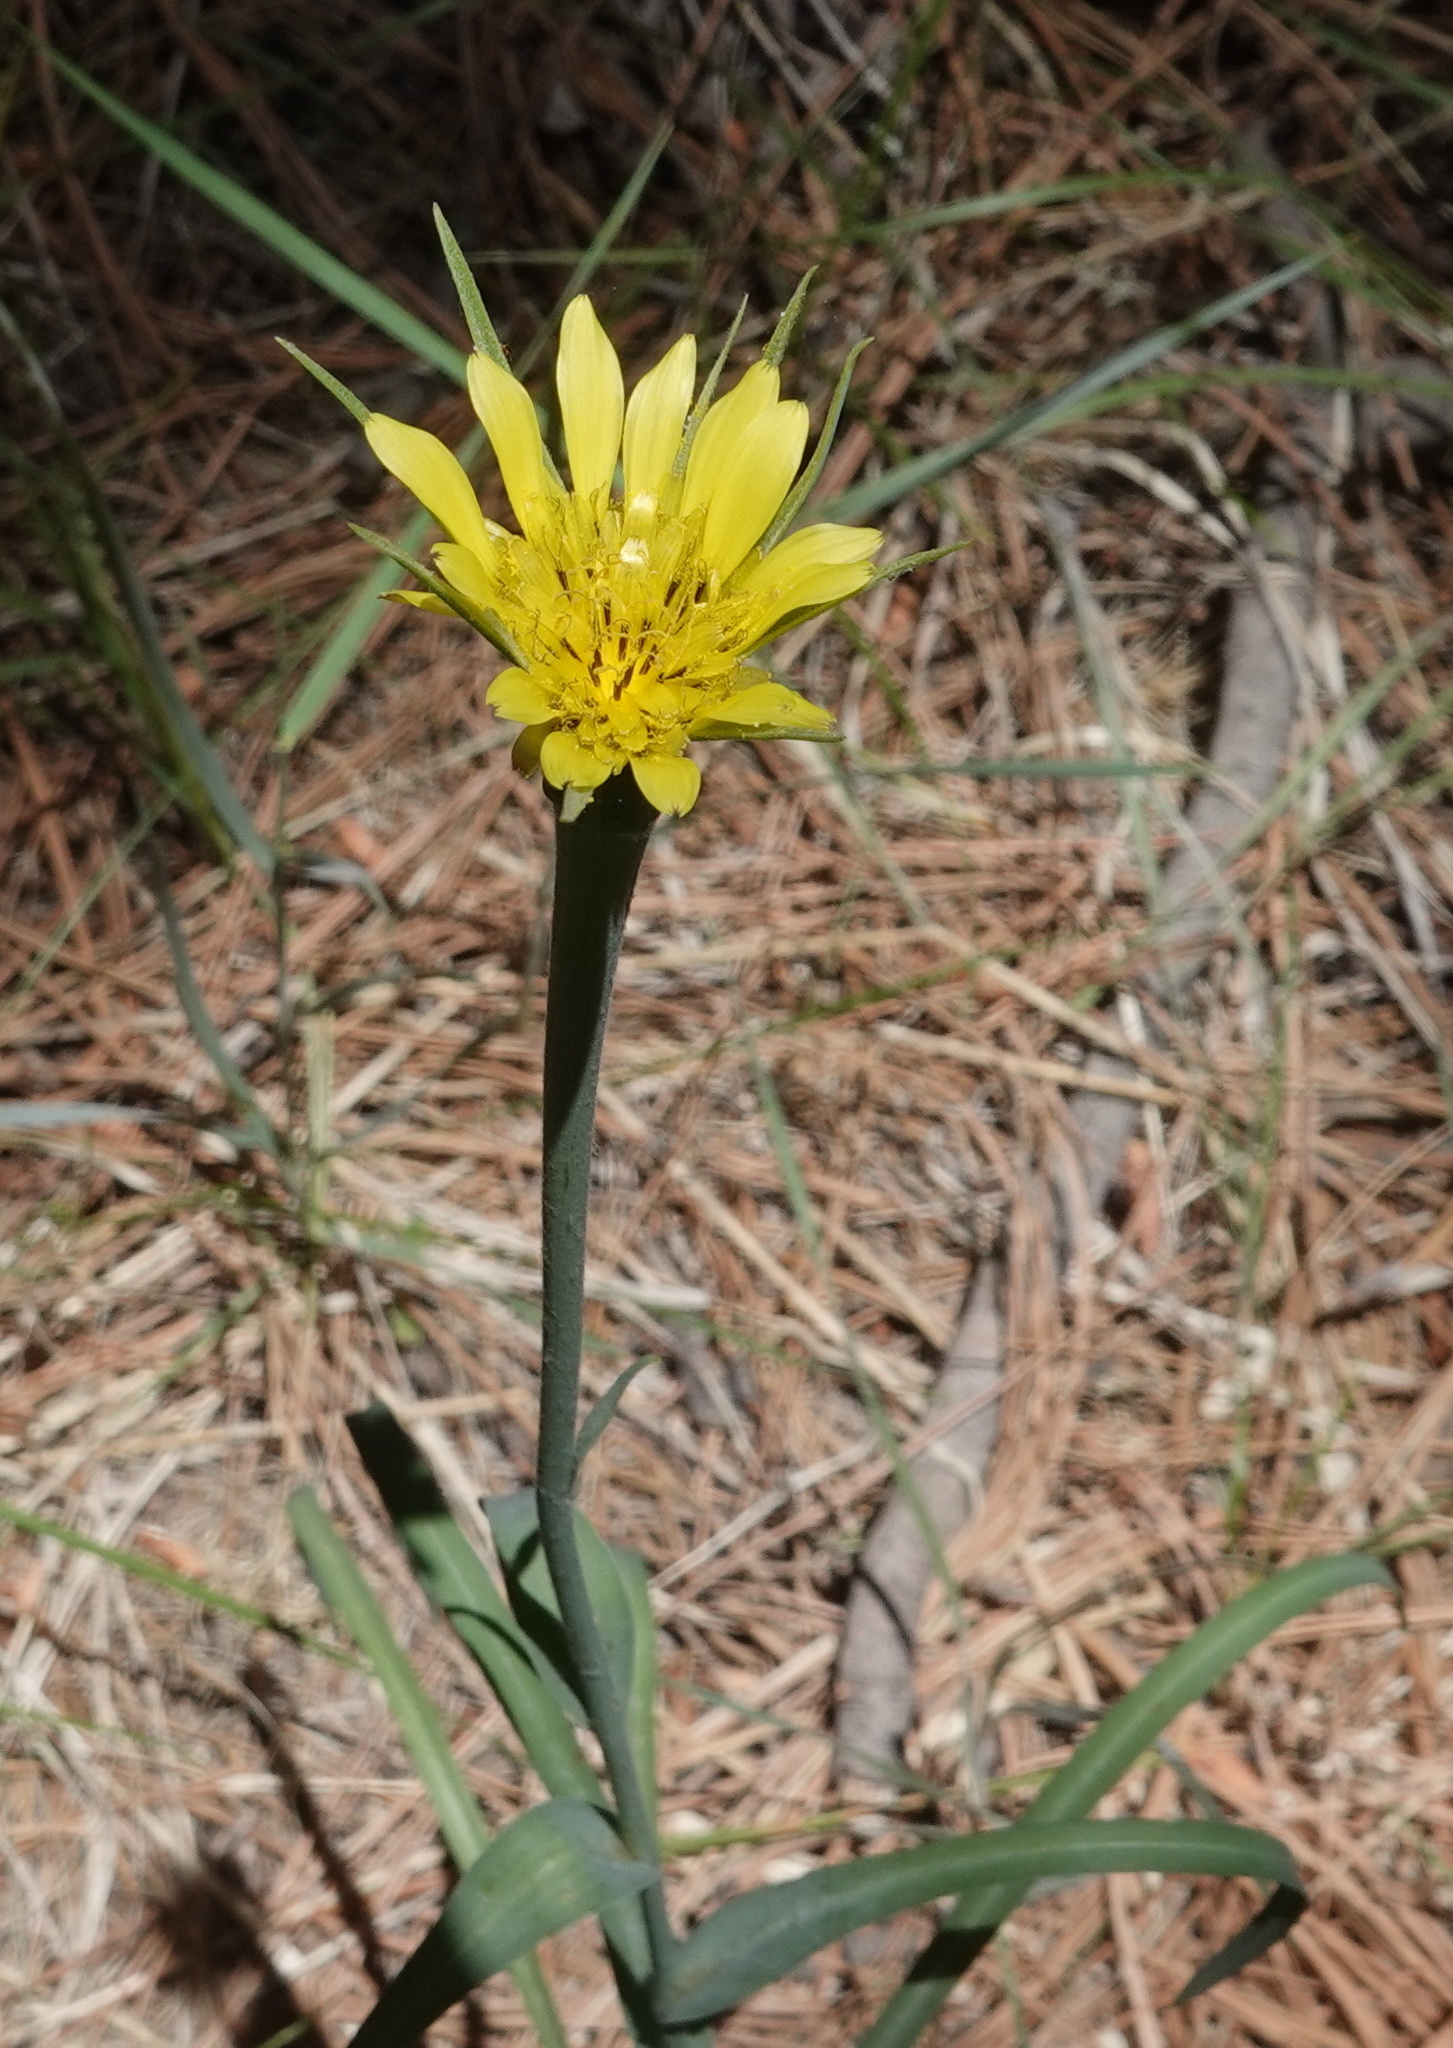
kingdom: Plantae
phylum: Tracheophyta
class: Magnoliopsida
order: Asterales
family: Asteraceae
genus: Tragopogon
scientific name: Tragopogon dubius
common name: Yellow salsify
